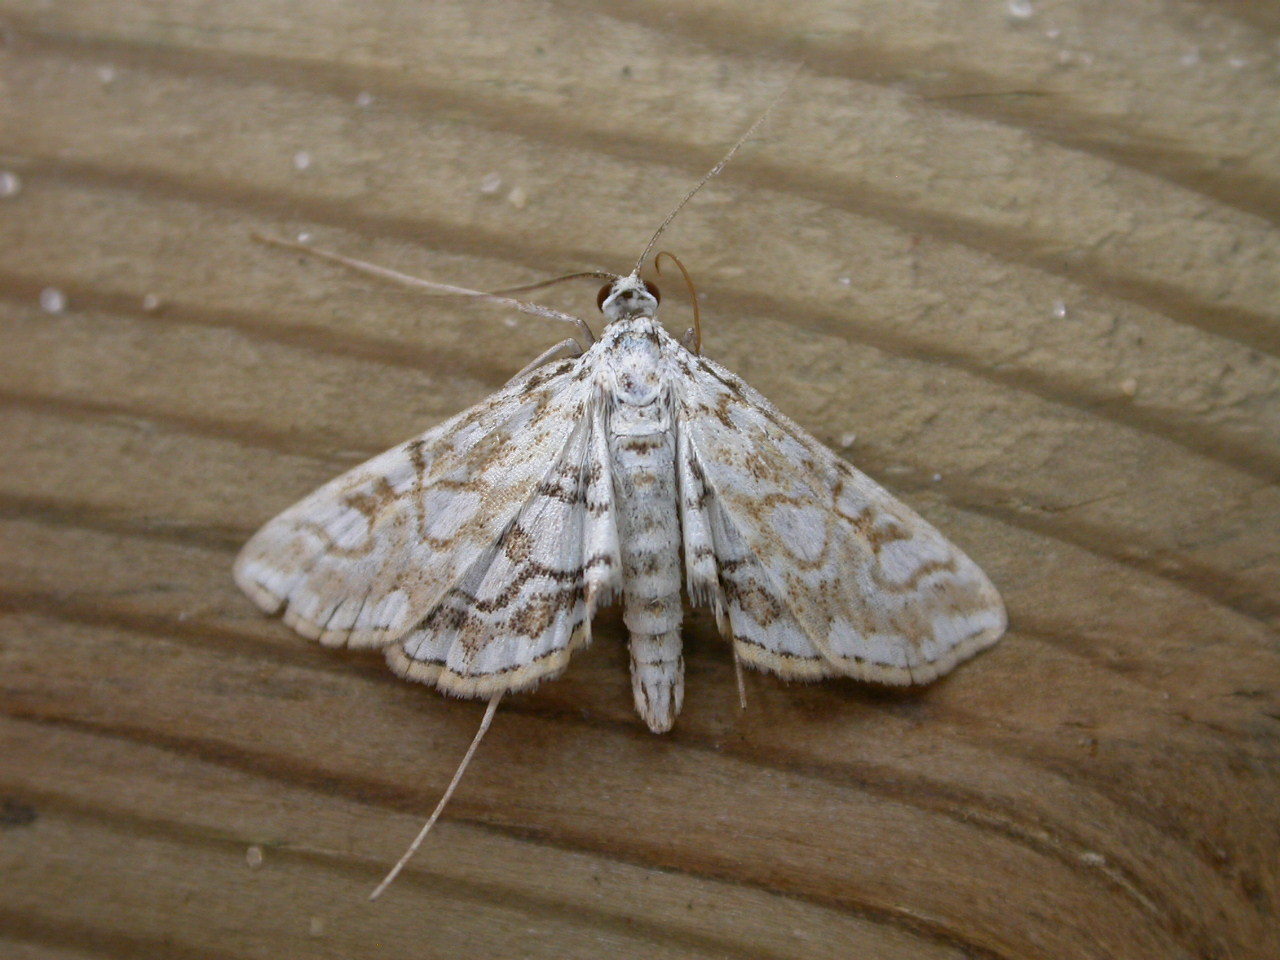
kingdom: Animalia
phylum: Arthropoda
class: Insecta
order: Lepidoptera
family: Crambidae
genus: Elophila
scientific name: Elophila nymphaeata
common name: Brown china-mark
